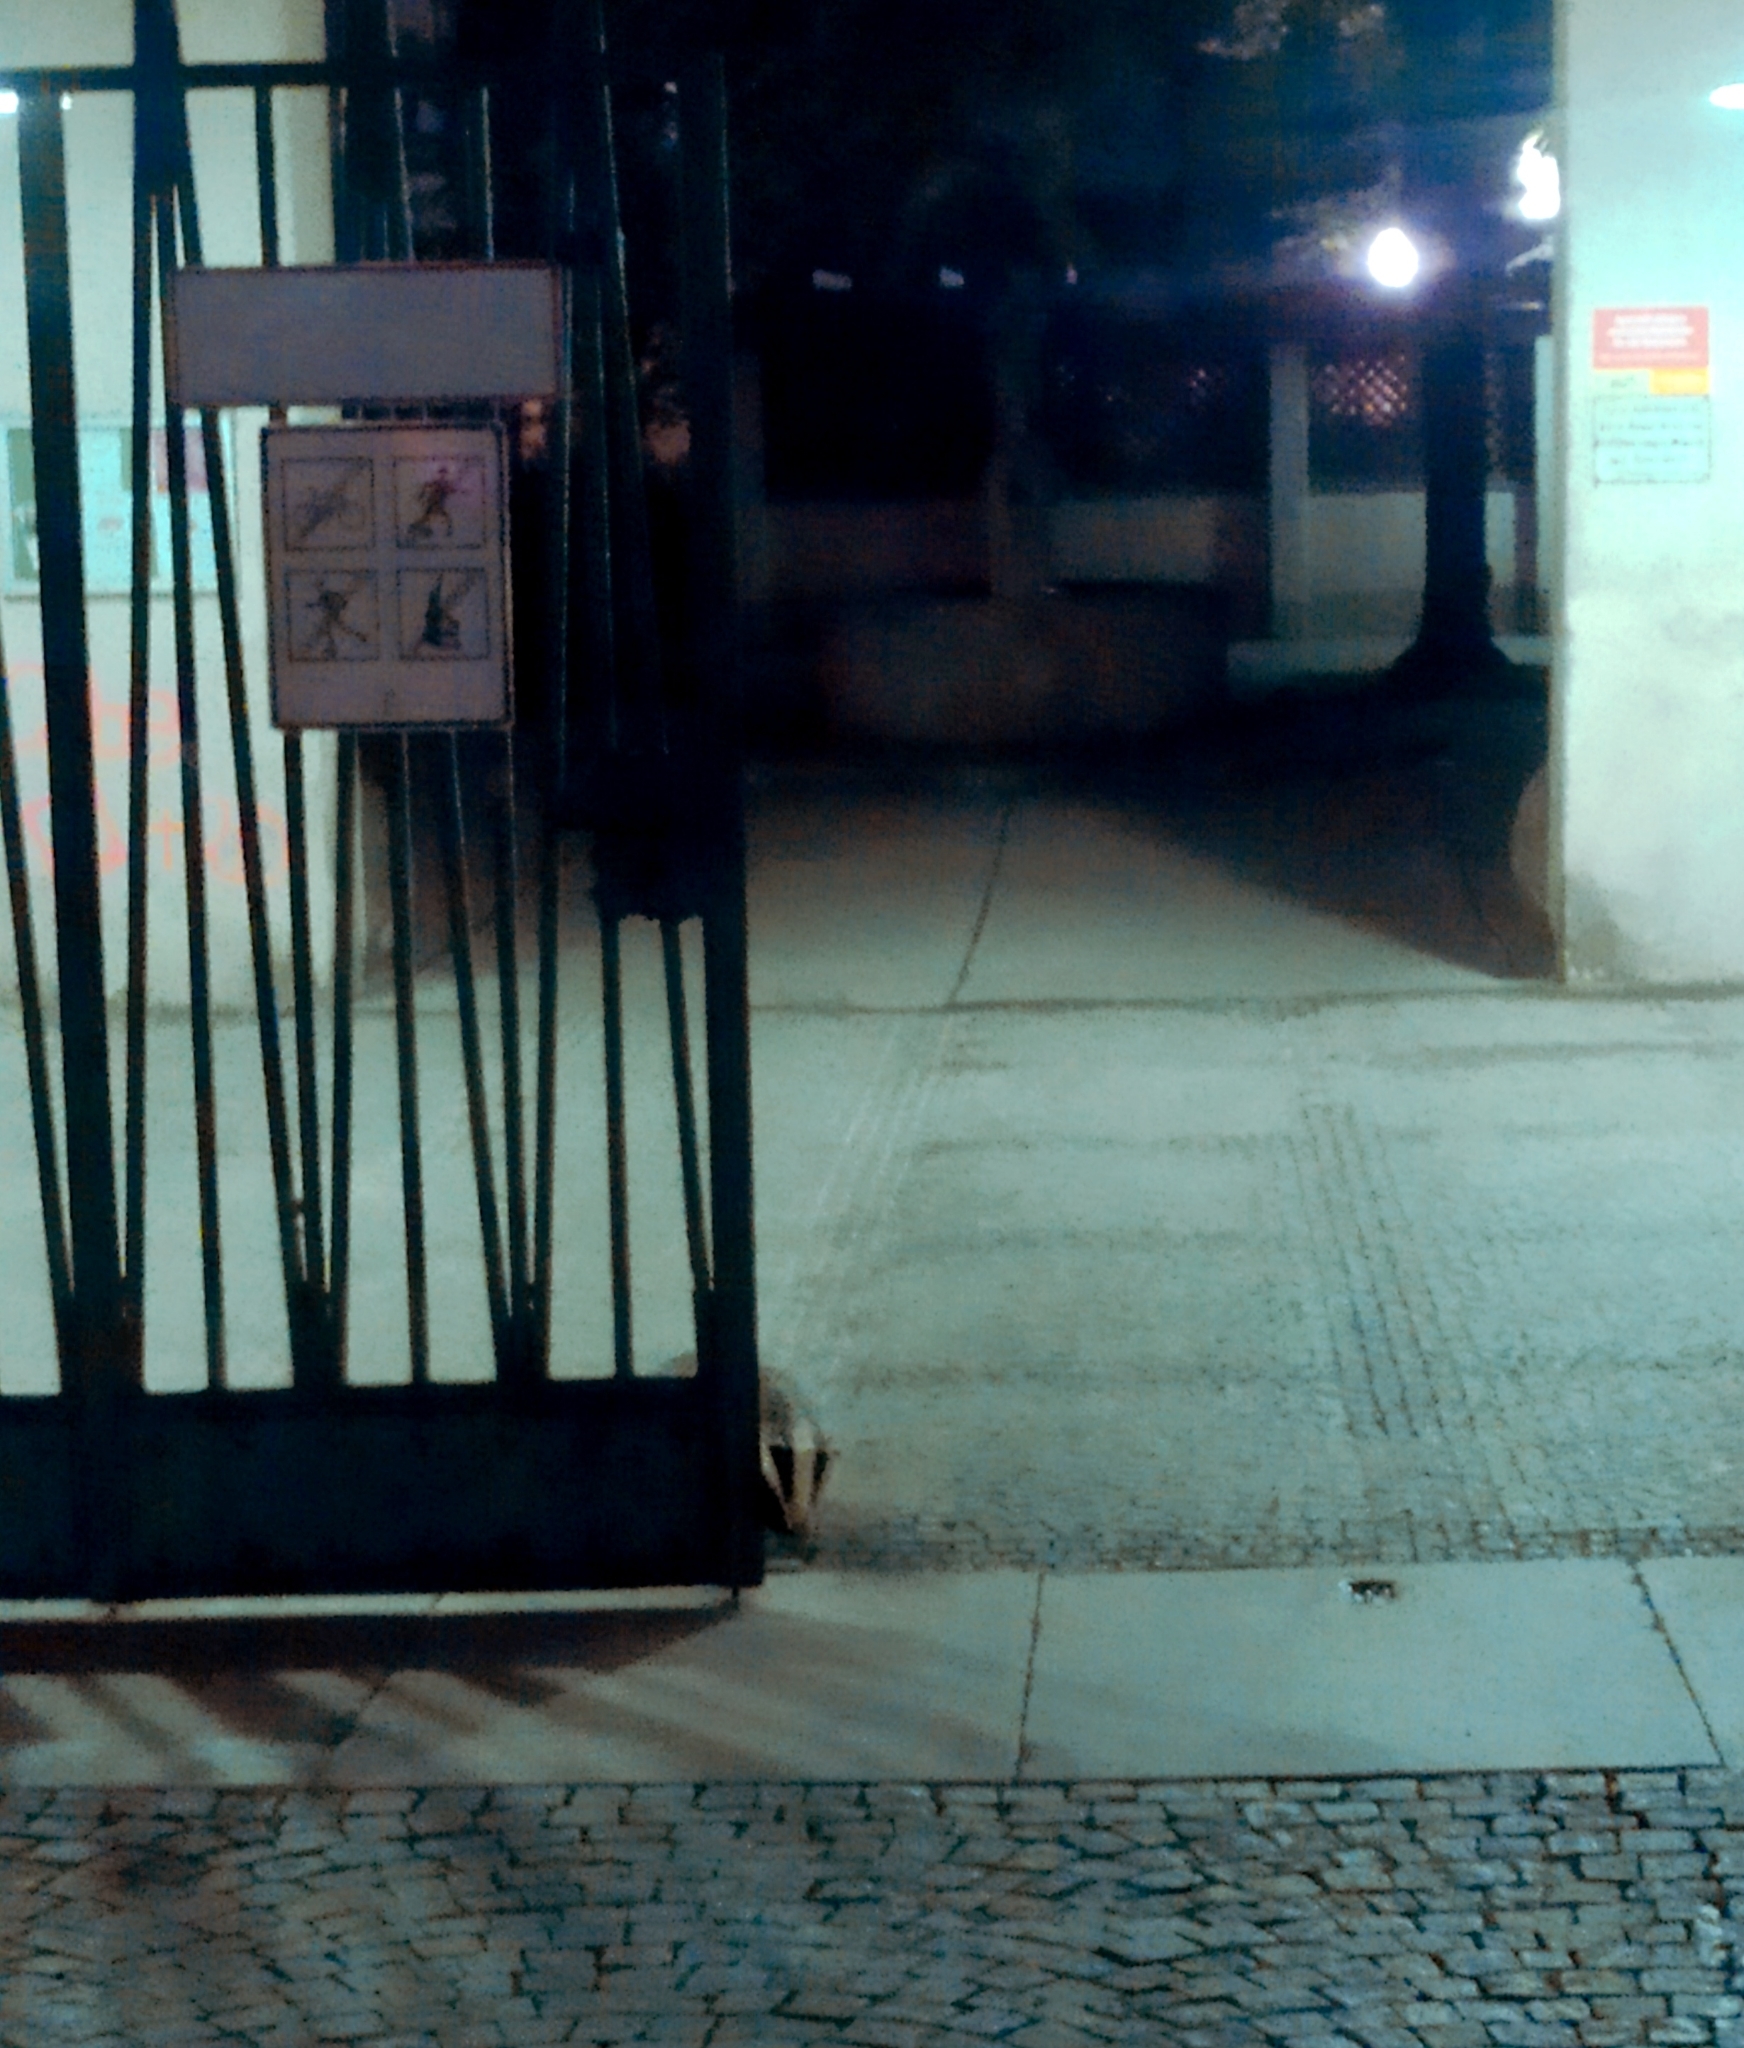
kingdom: Animalia
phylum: Chordata
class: Mammalia
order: Carnivora
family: Mustelidae
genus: Meles
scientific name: Meles meles
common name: Eurasian badger
